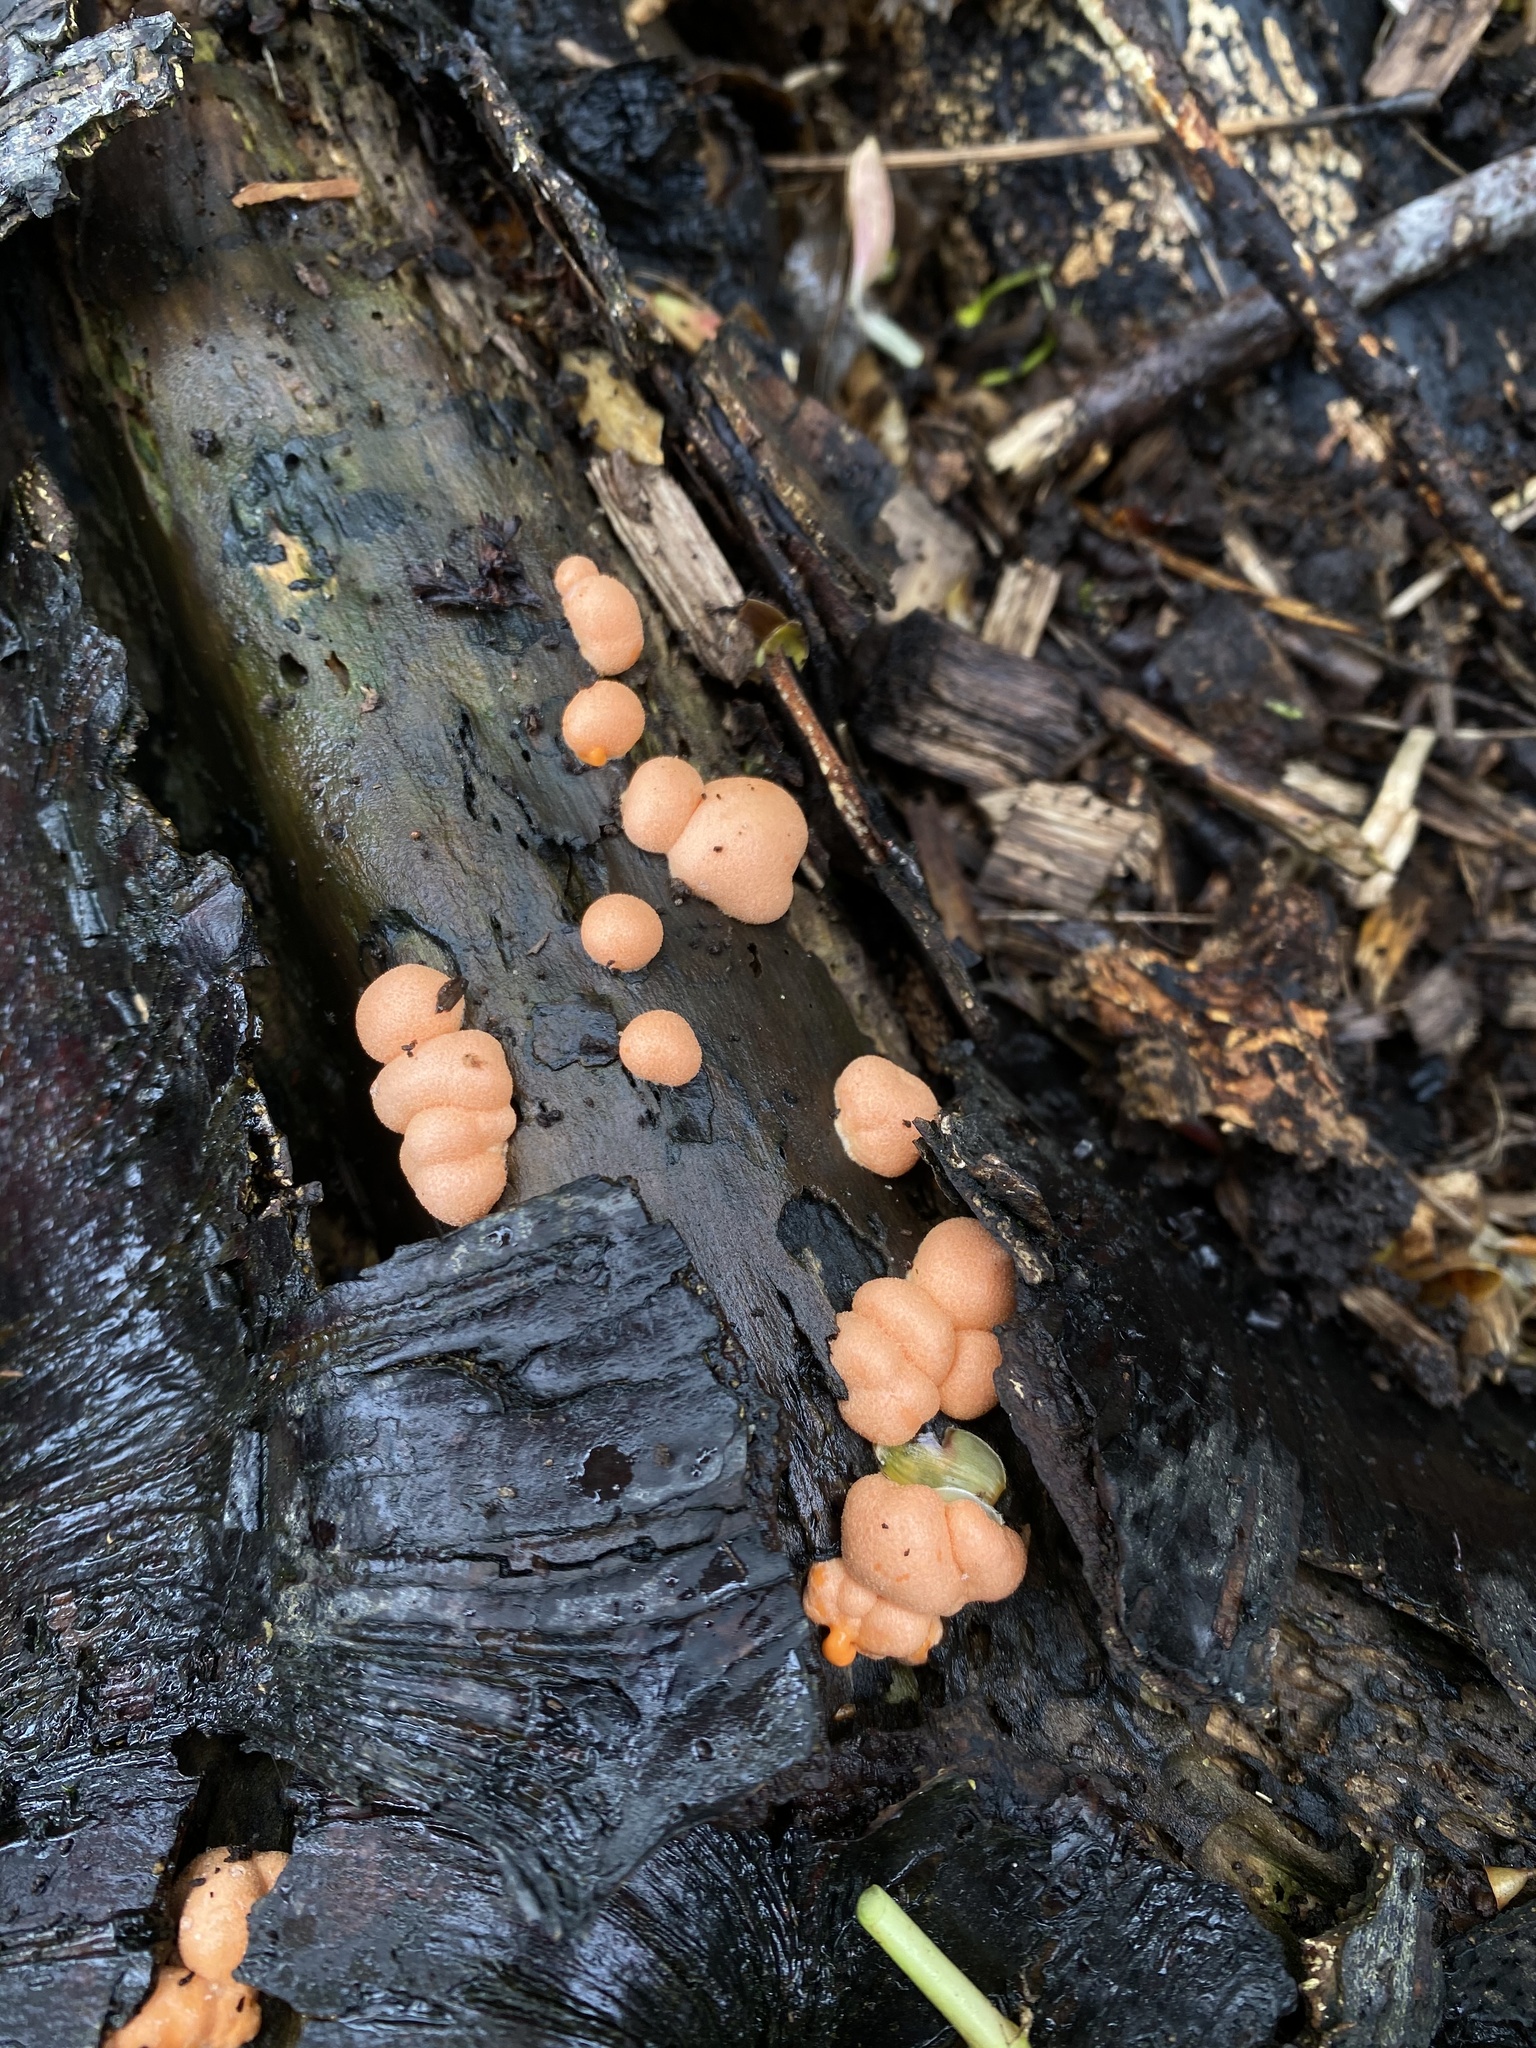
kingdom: Protozoa
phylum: Mycetozoa
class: Myxomycetes
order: Cribrariales
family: Tubiferaceae
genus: Lycogala
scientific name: Lycogala epidendrum
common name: Wolf's milk
